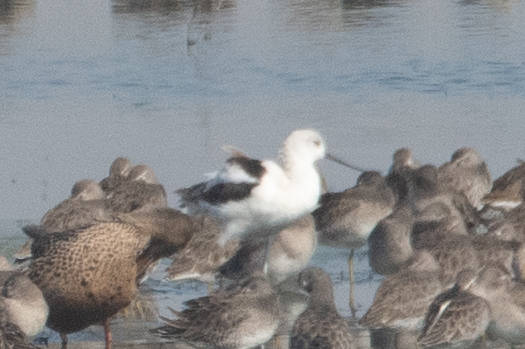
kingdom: Animalia
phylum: Chordata
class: Aves
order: Charadriiformes
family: Recurvirostridae
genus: Recurvirostra
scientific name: Recurvirostra americana
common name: American avocet
